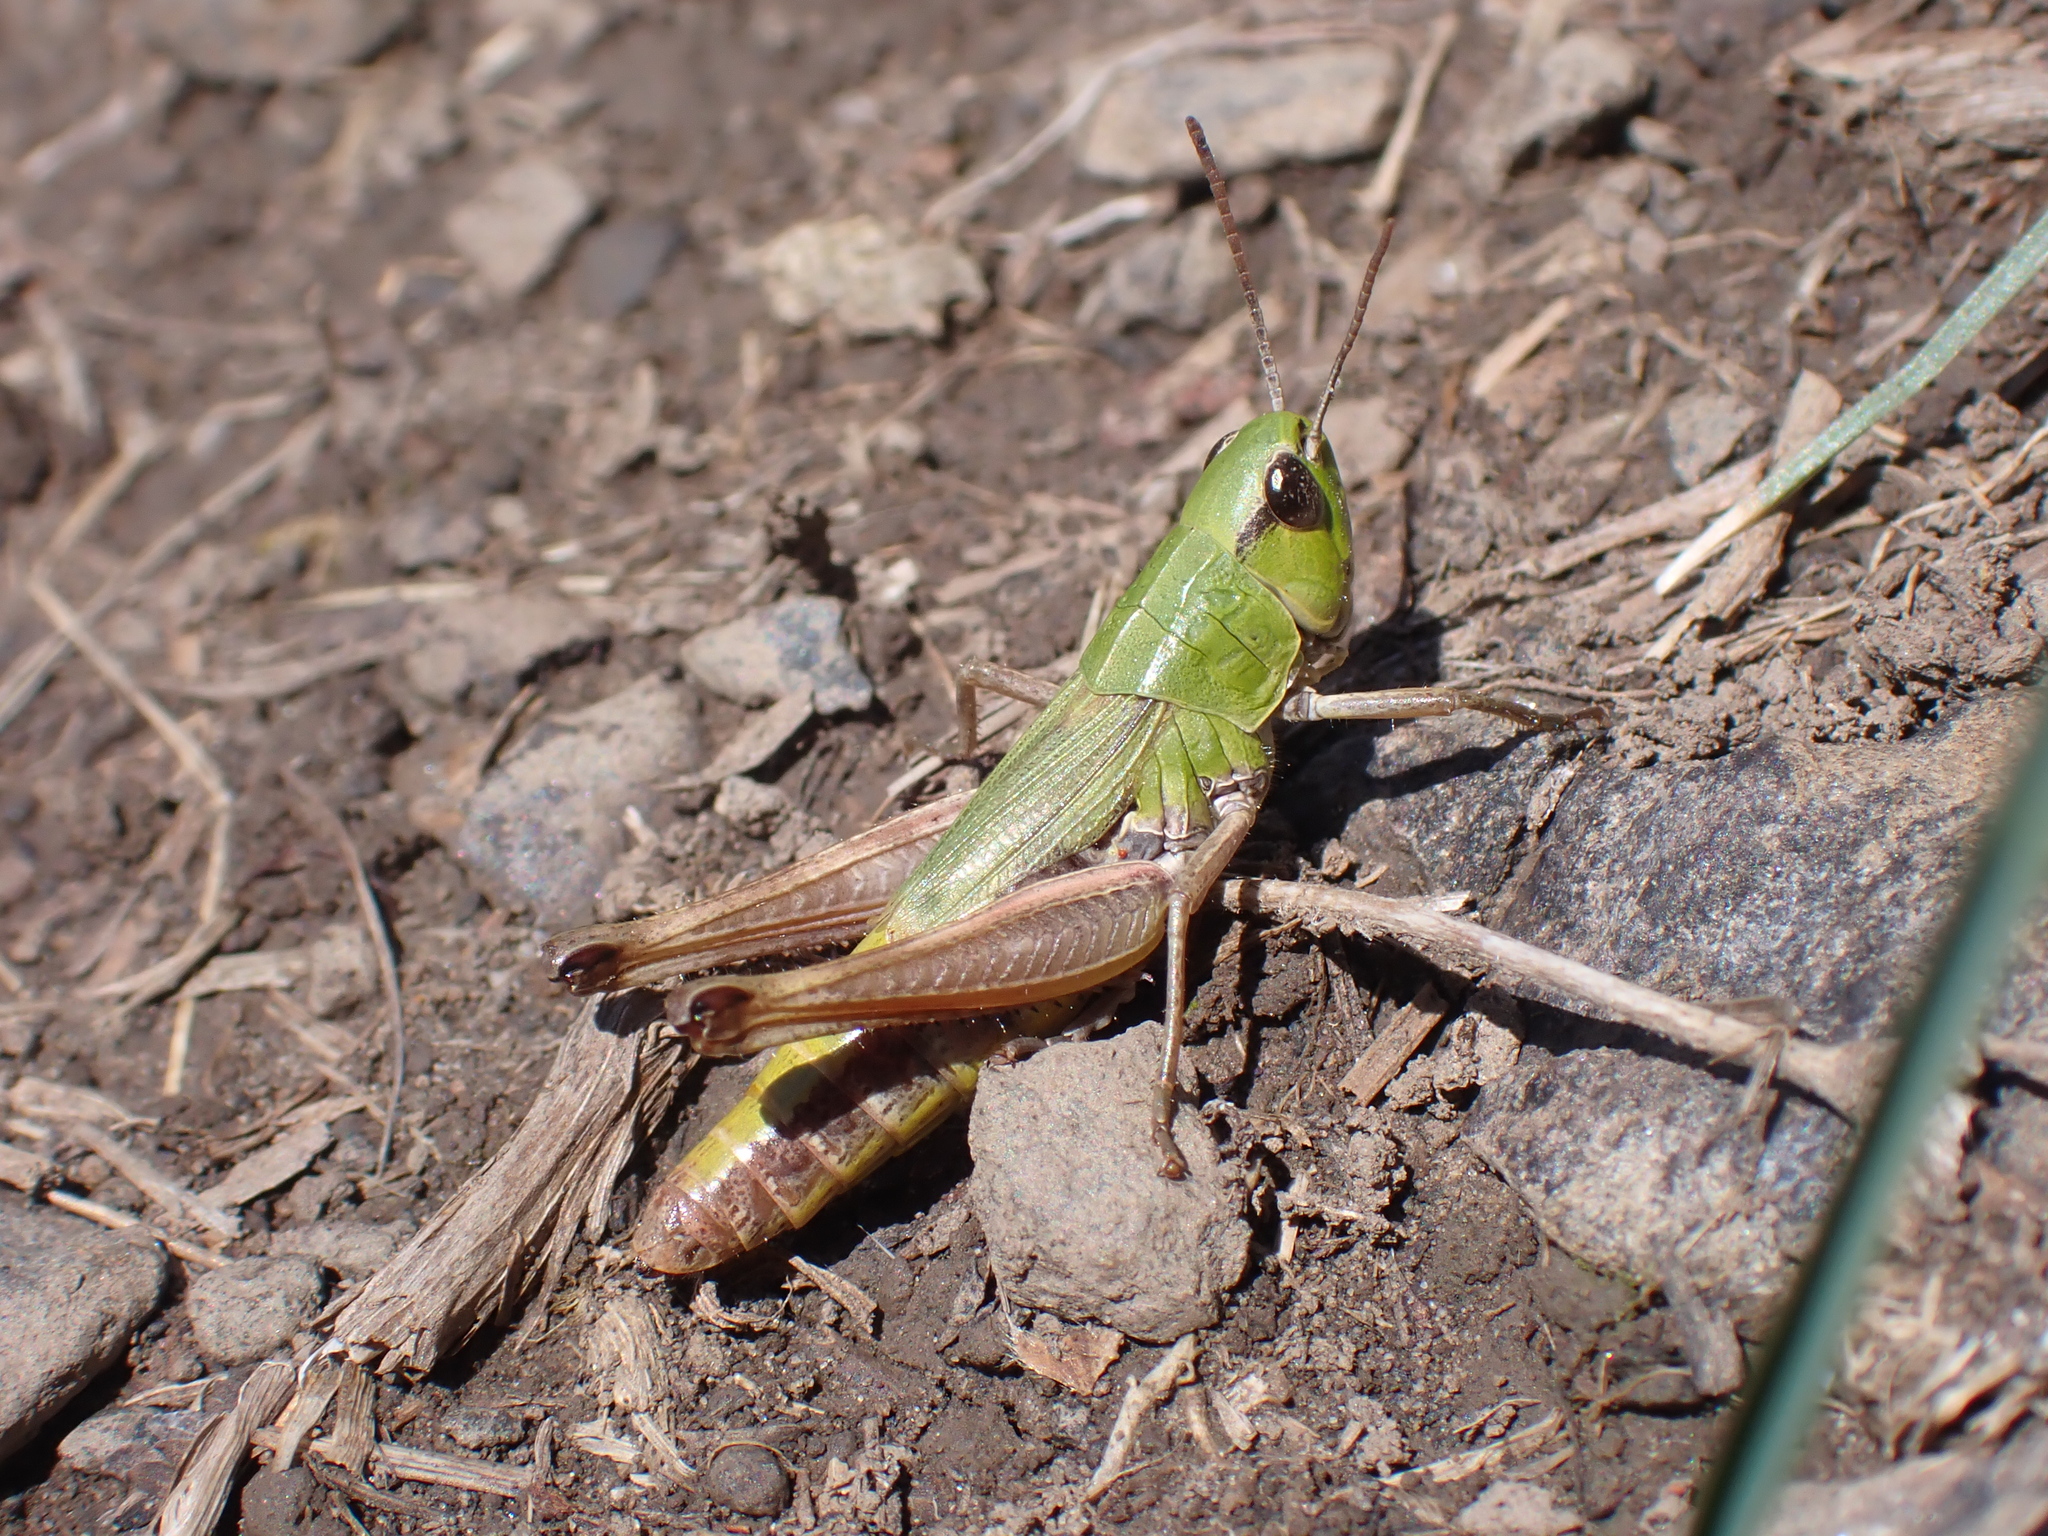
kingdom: Animalia
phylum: Arthropoda
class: Insecta
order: Orthoptera
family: Acrididae
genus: Pseudochorthippus
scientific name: Pseudochorthippus parallelus
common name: Meadow grasshopper
